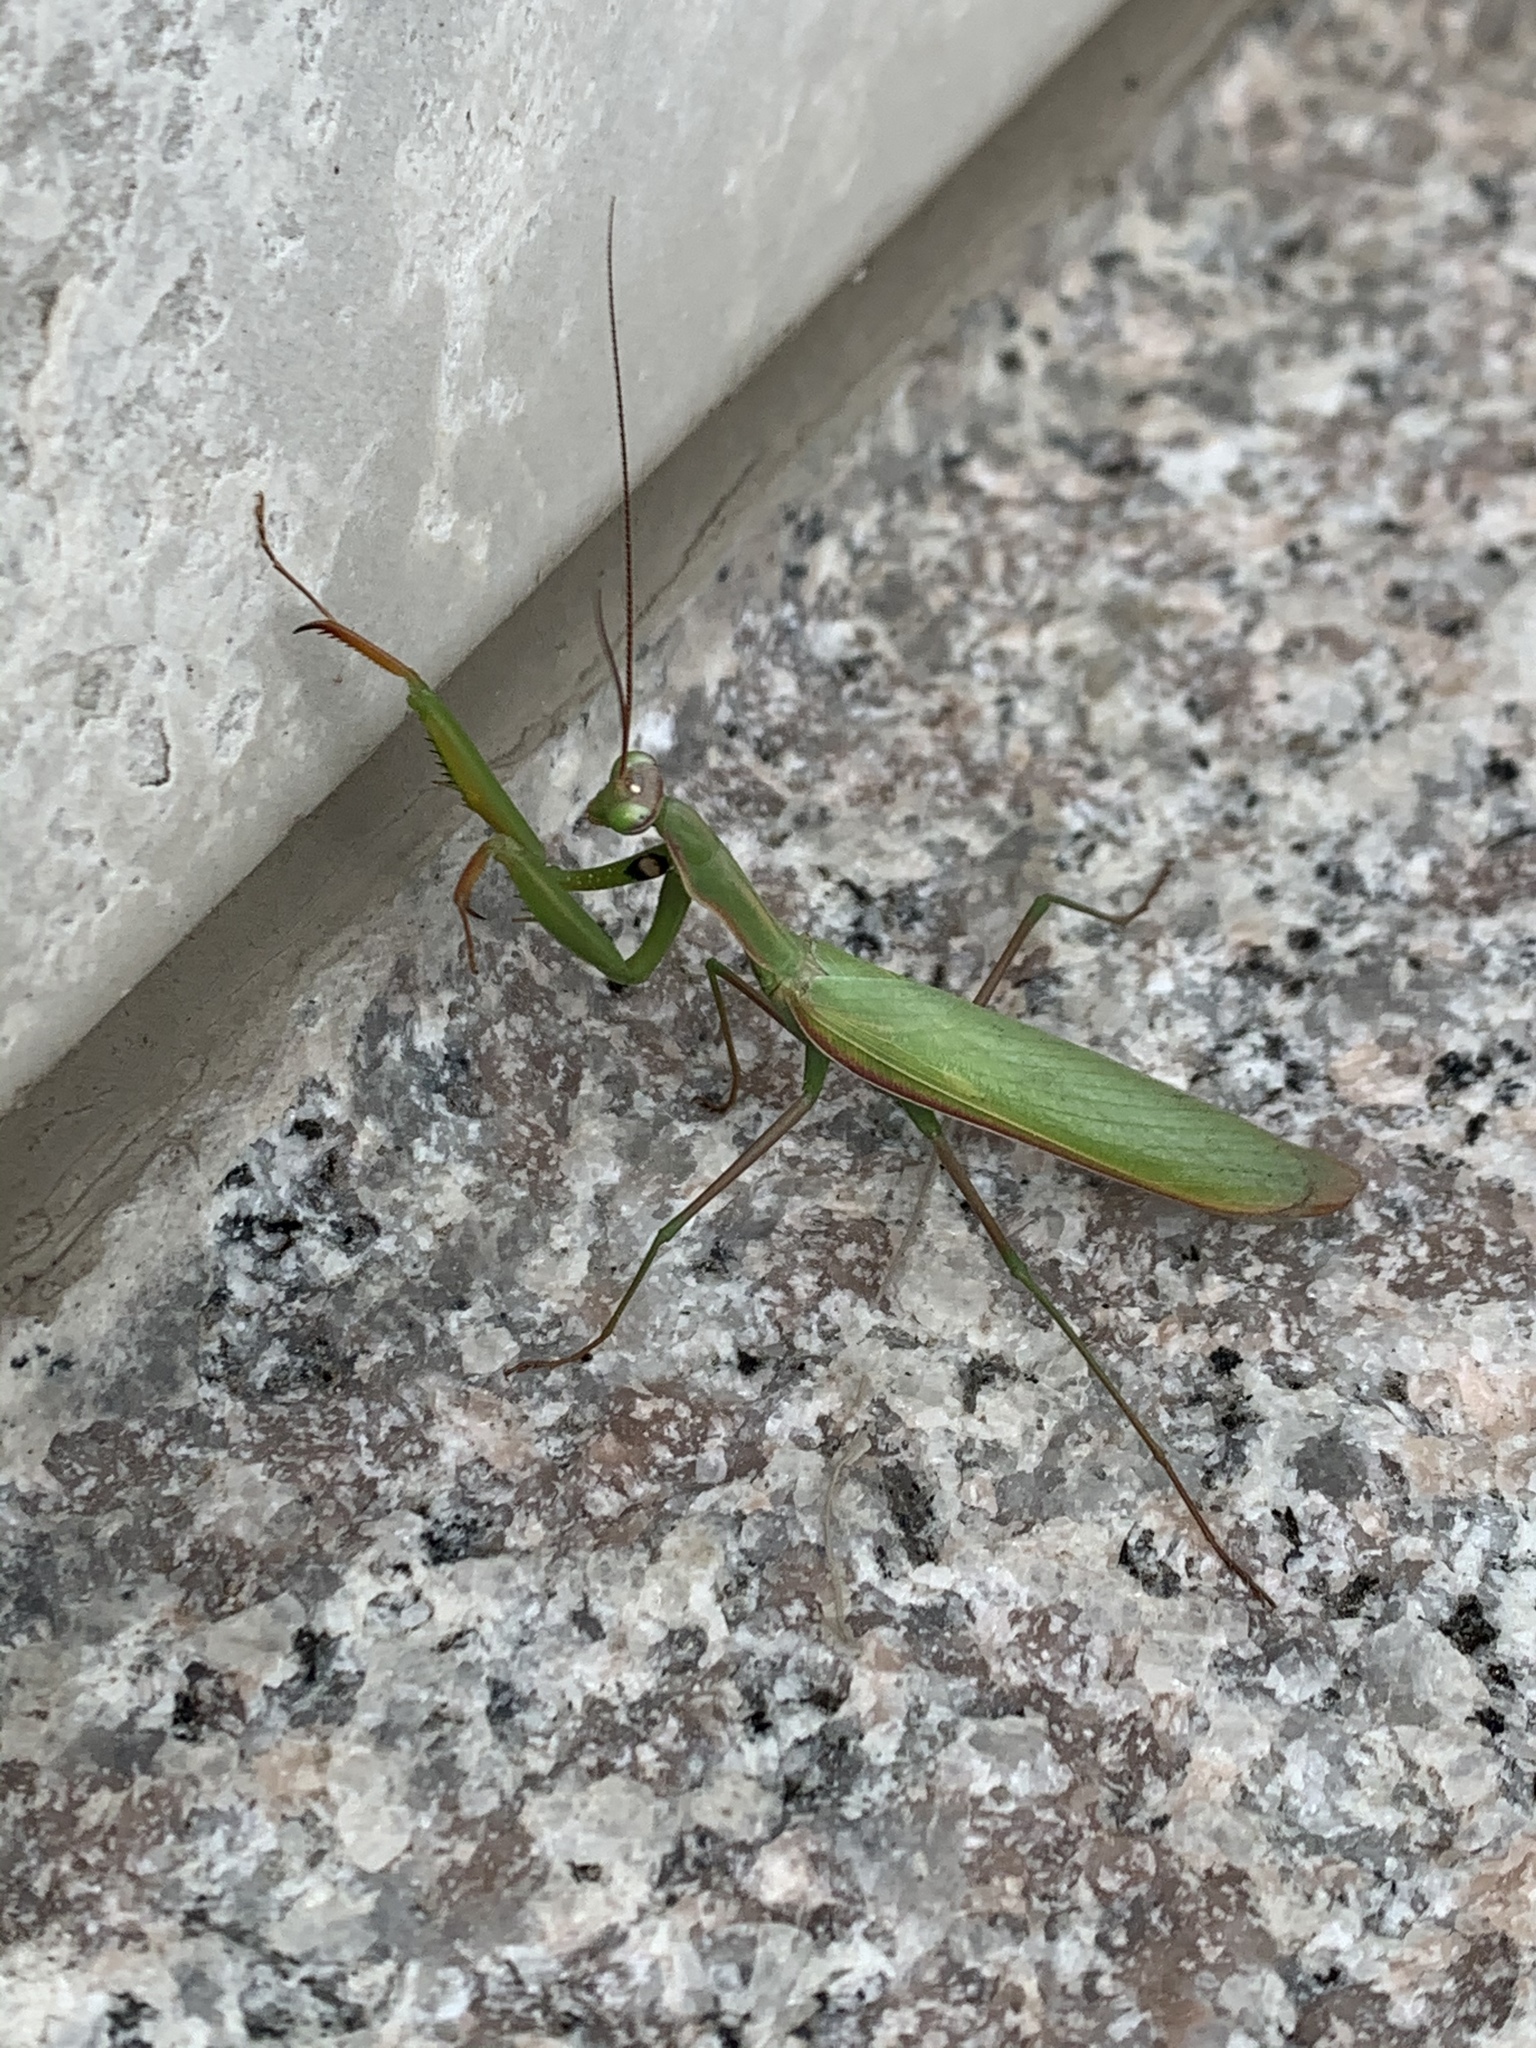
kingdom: Animalia
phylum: Arthropoda
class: Insecta
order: Mantodea
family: Mantidae
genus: Mantis
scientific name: Mantis religiosa
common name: Praying mantis
